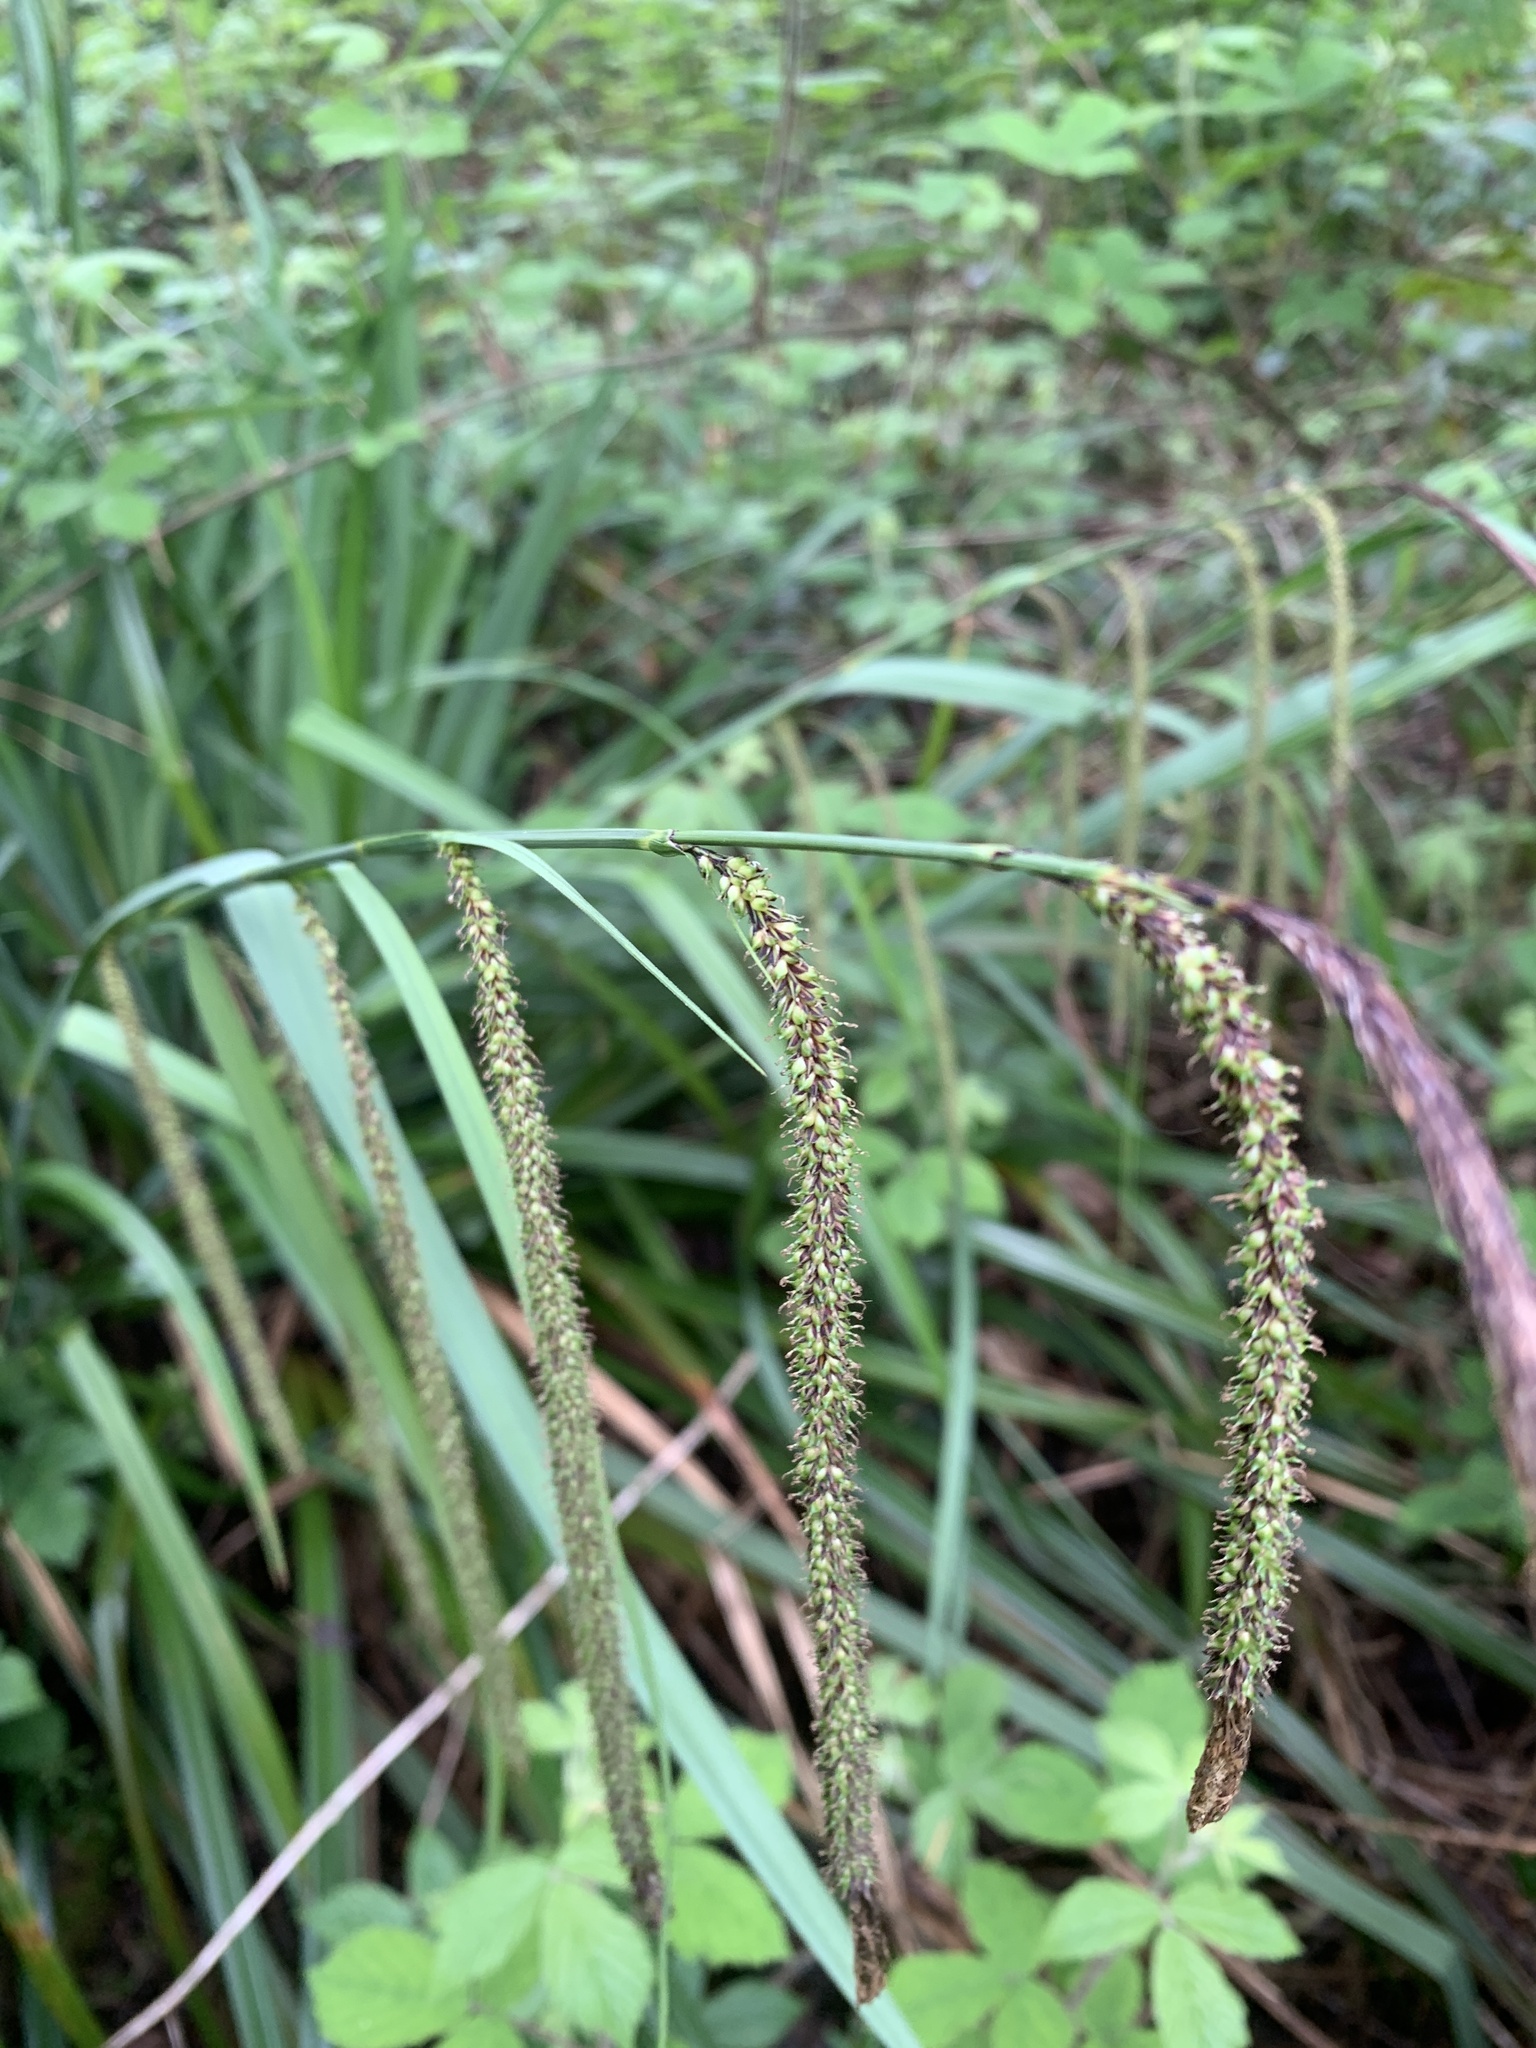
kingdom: Plantae
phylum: Tracheophyta
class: Liliopsida
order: Poales
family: Cyperaceae
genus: Carex
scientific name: Carex pendula
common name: Pendulous sedge
